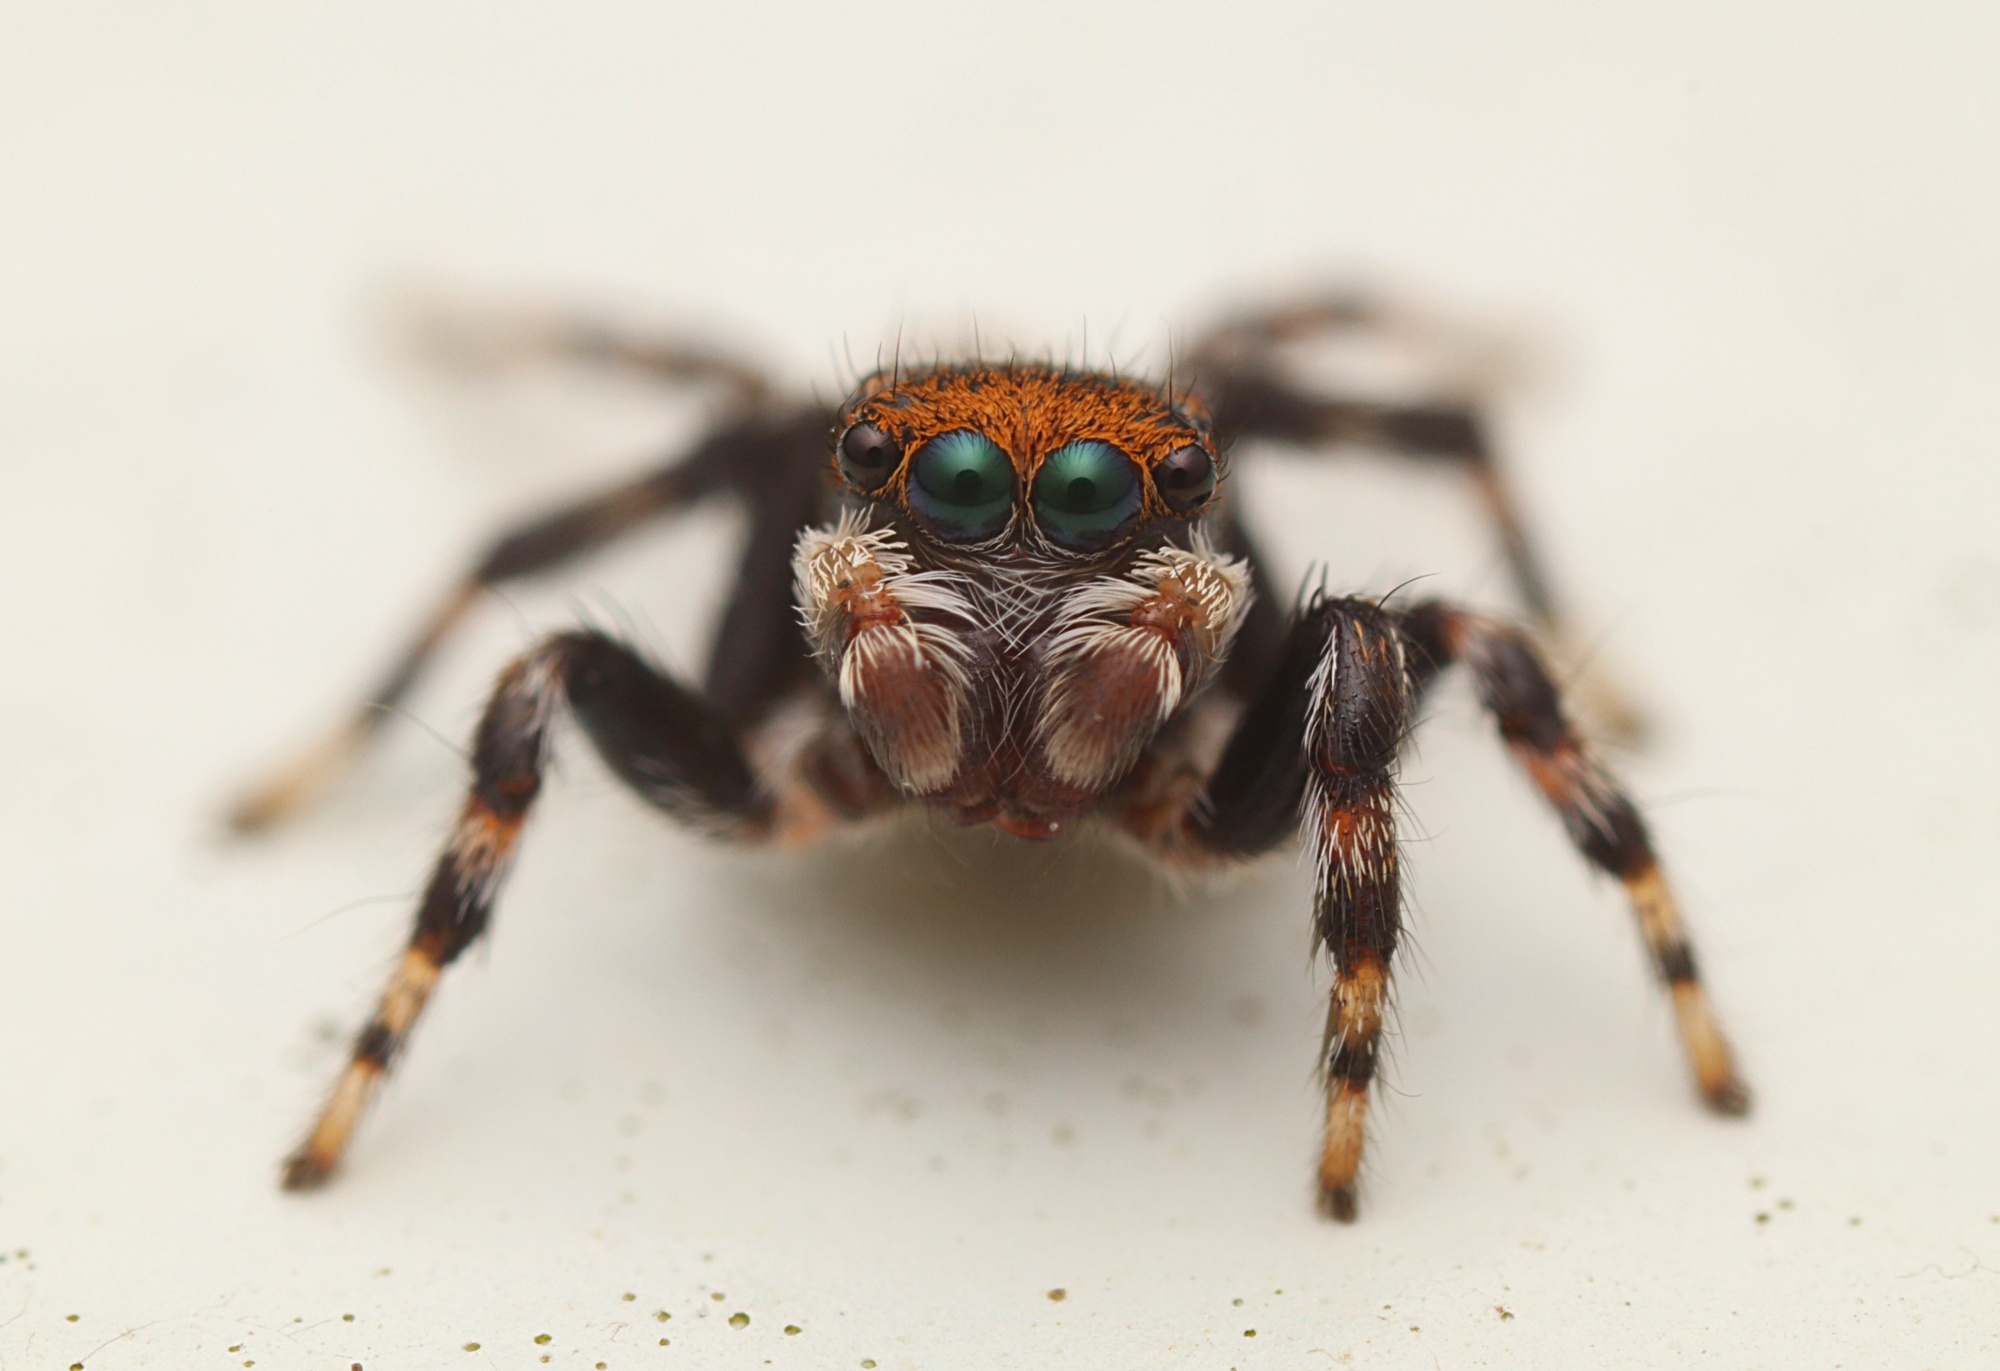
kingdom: Animalia
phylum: Arthropoda
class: Arachnida
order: Araneae
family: Salticidae
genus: Maratus
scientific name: Maratus griseus
